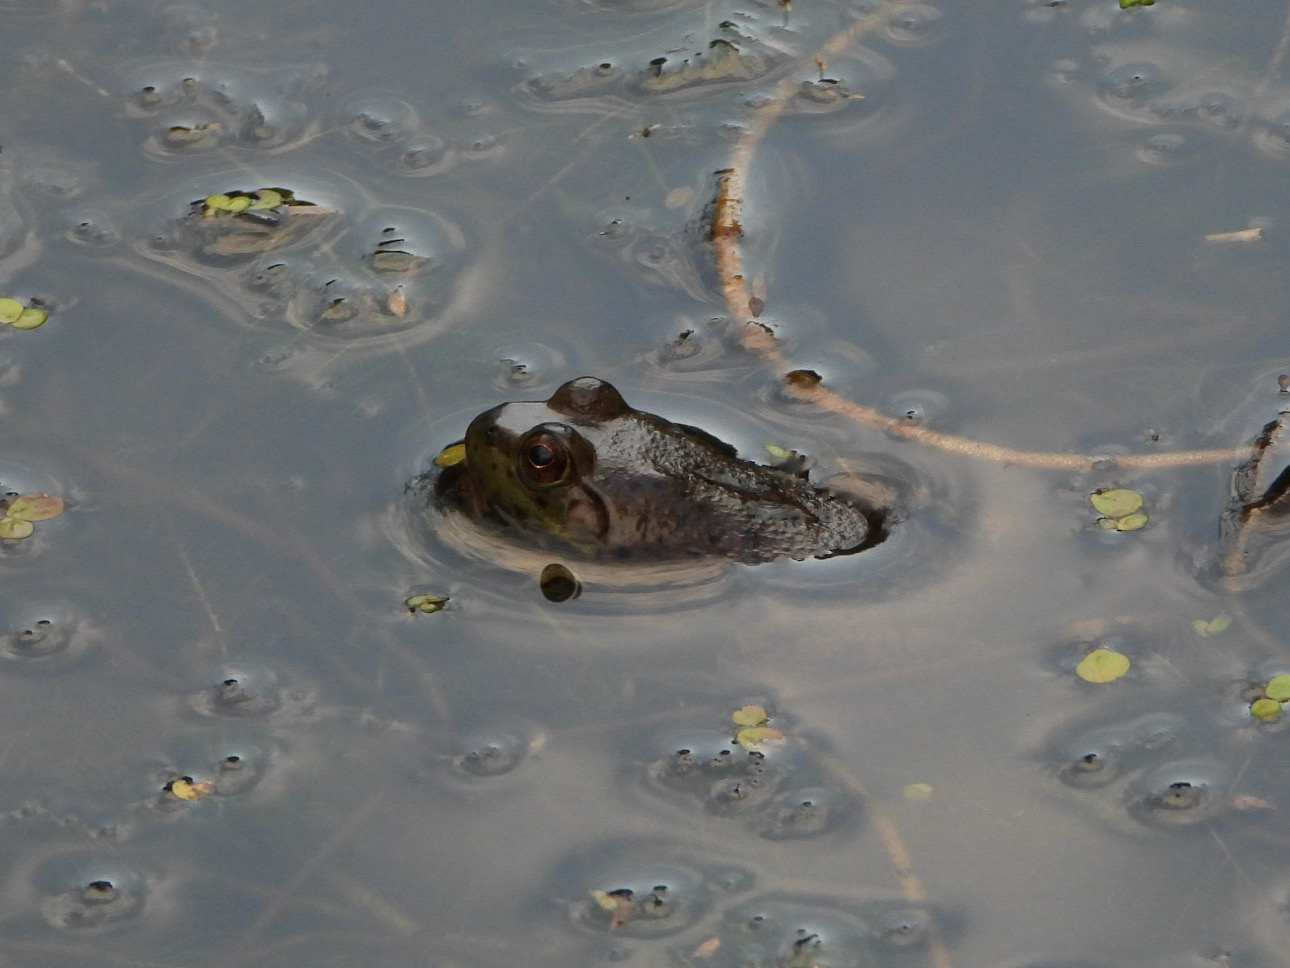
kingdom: Animalia
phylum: Chordata
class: Amphibia
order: Anura
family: Ranidae
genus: Lithobates
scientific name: Lithobates catesbeianus
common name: American bullfrog
